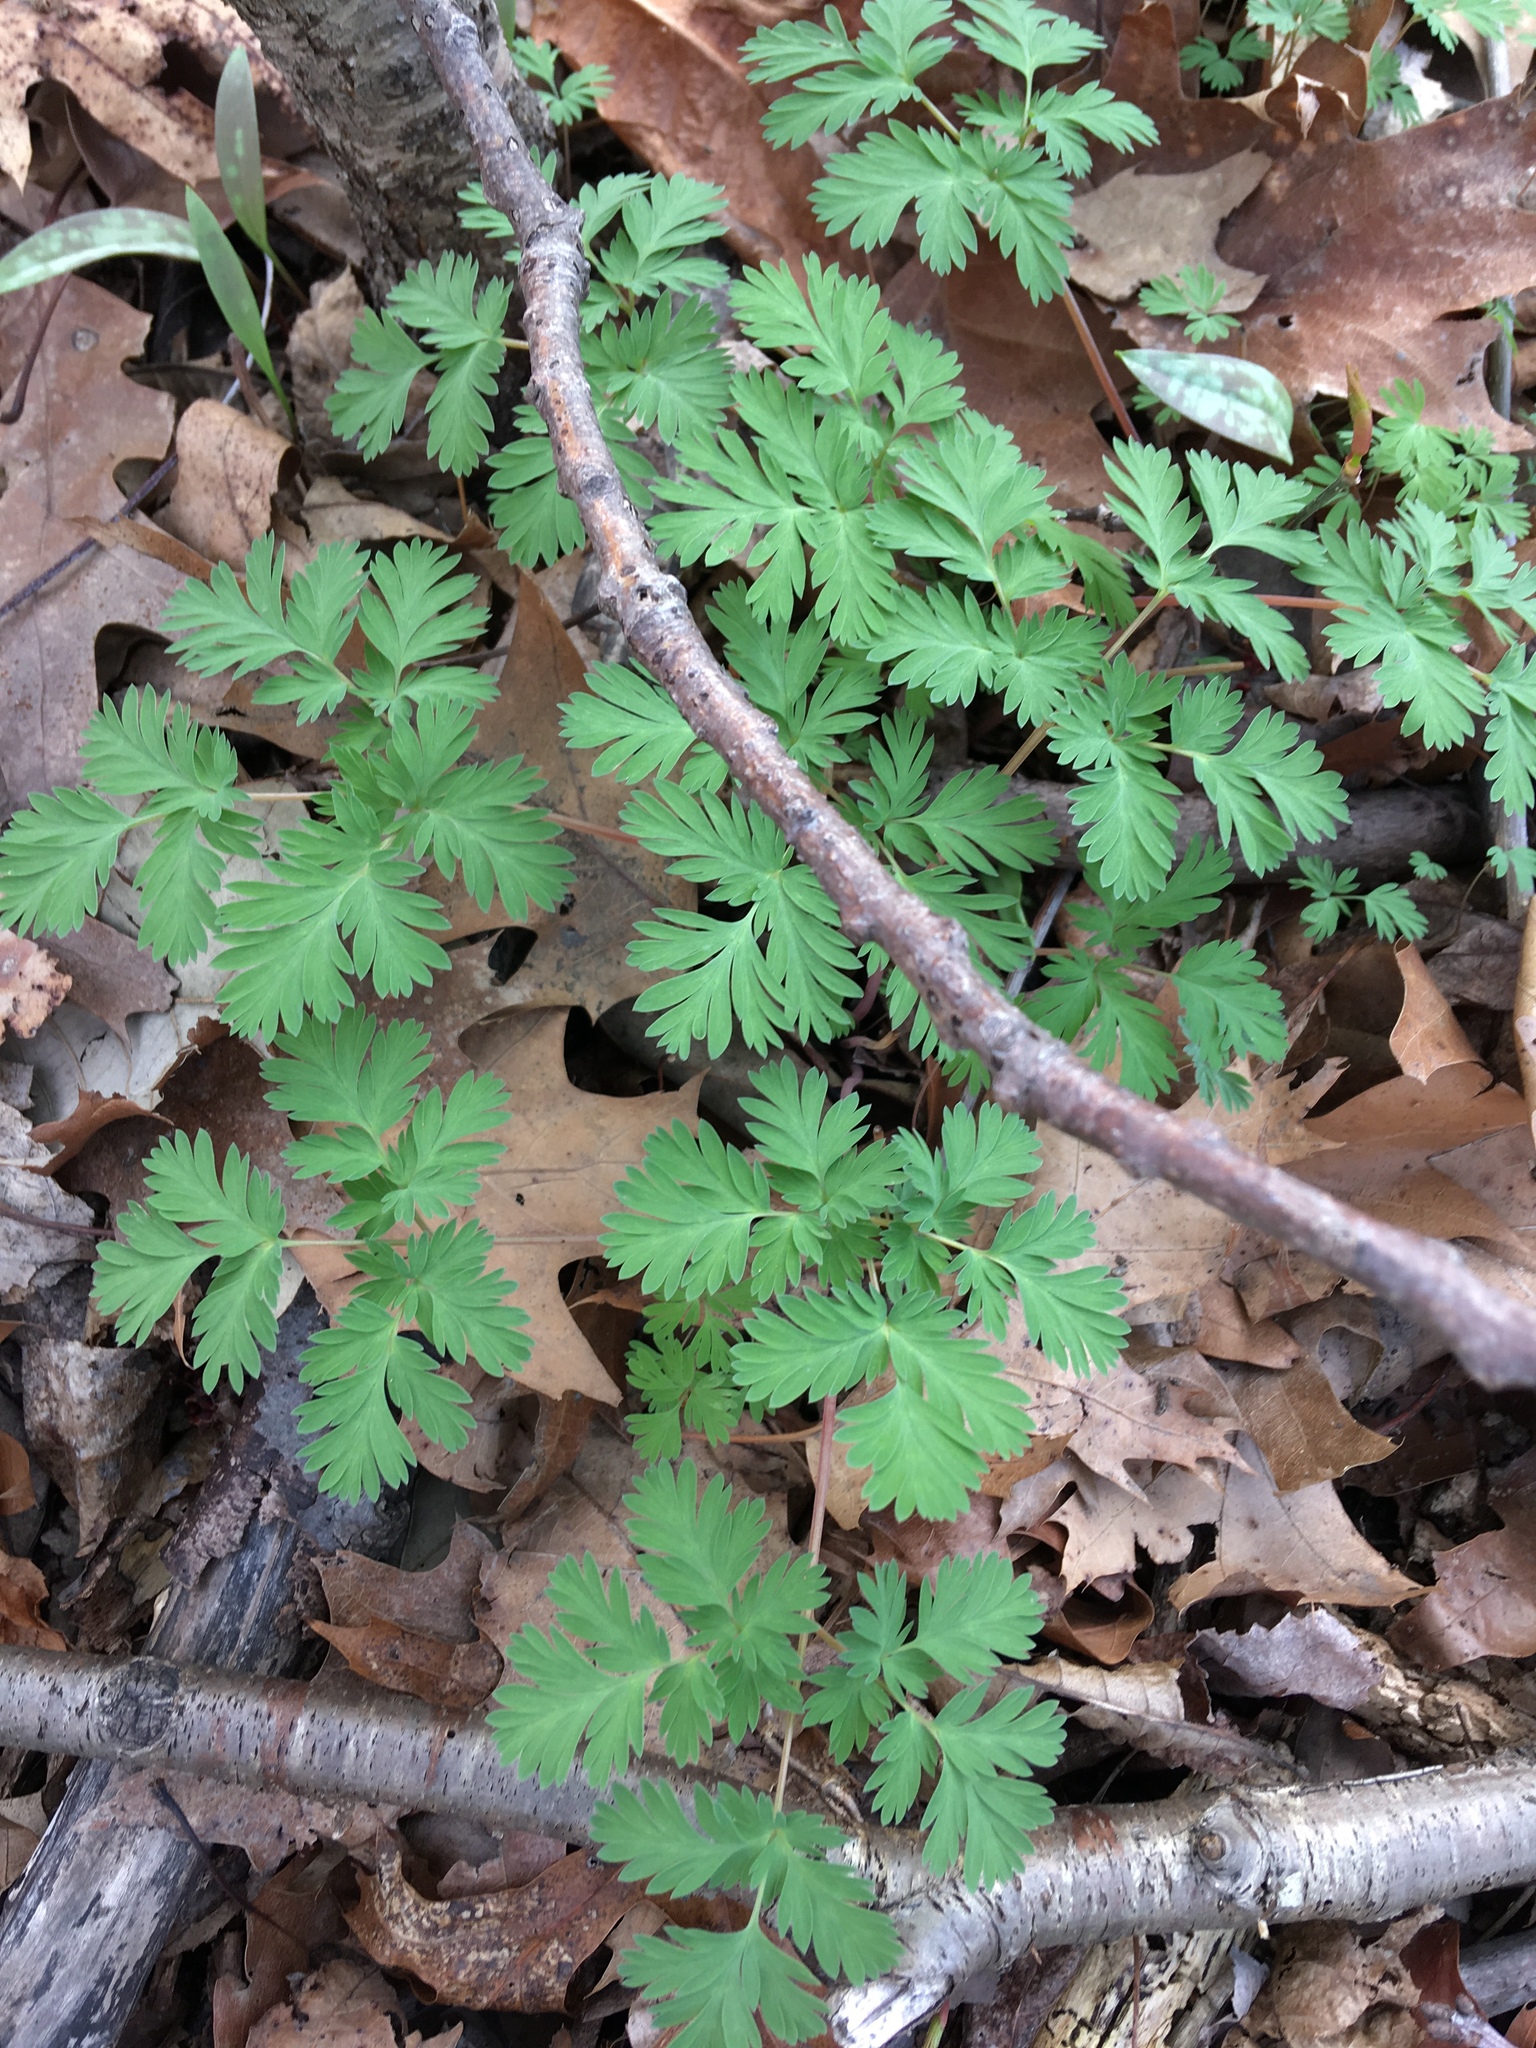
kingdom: Plantae
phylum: Tracheophyta
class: Magnoliopsida
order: Ranunculales
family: Papaveraceae
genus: Dicentra
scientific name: Dicentra cucullaria
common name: Dutchman's breeches
